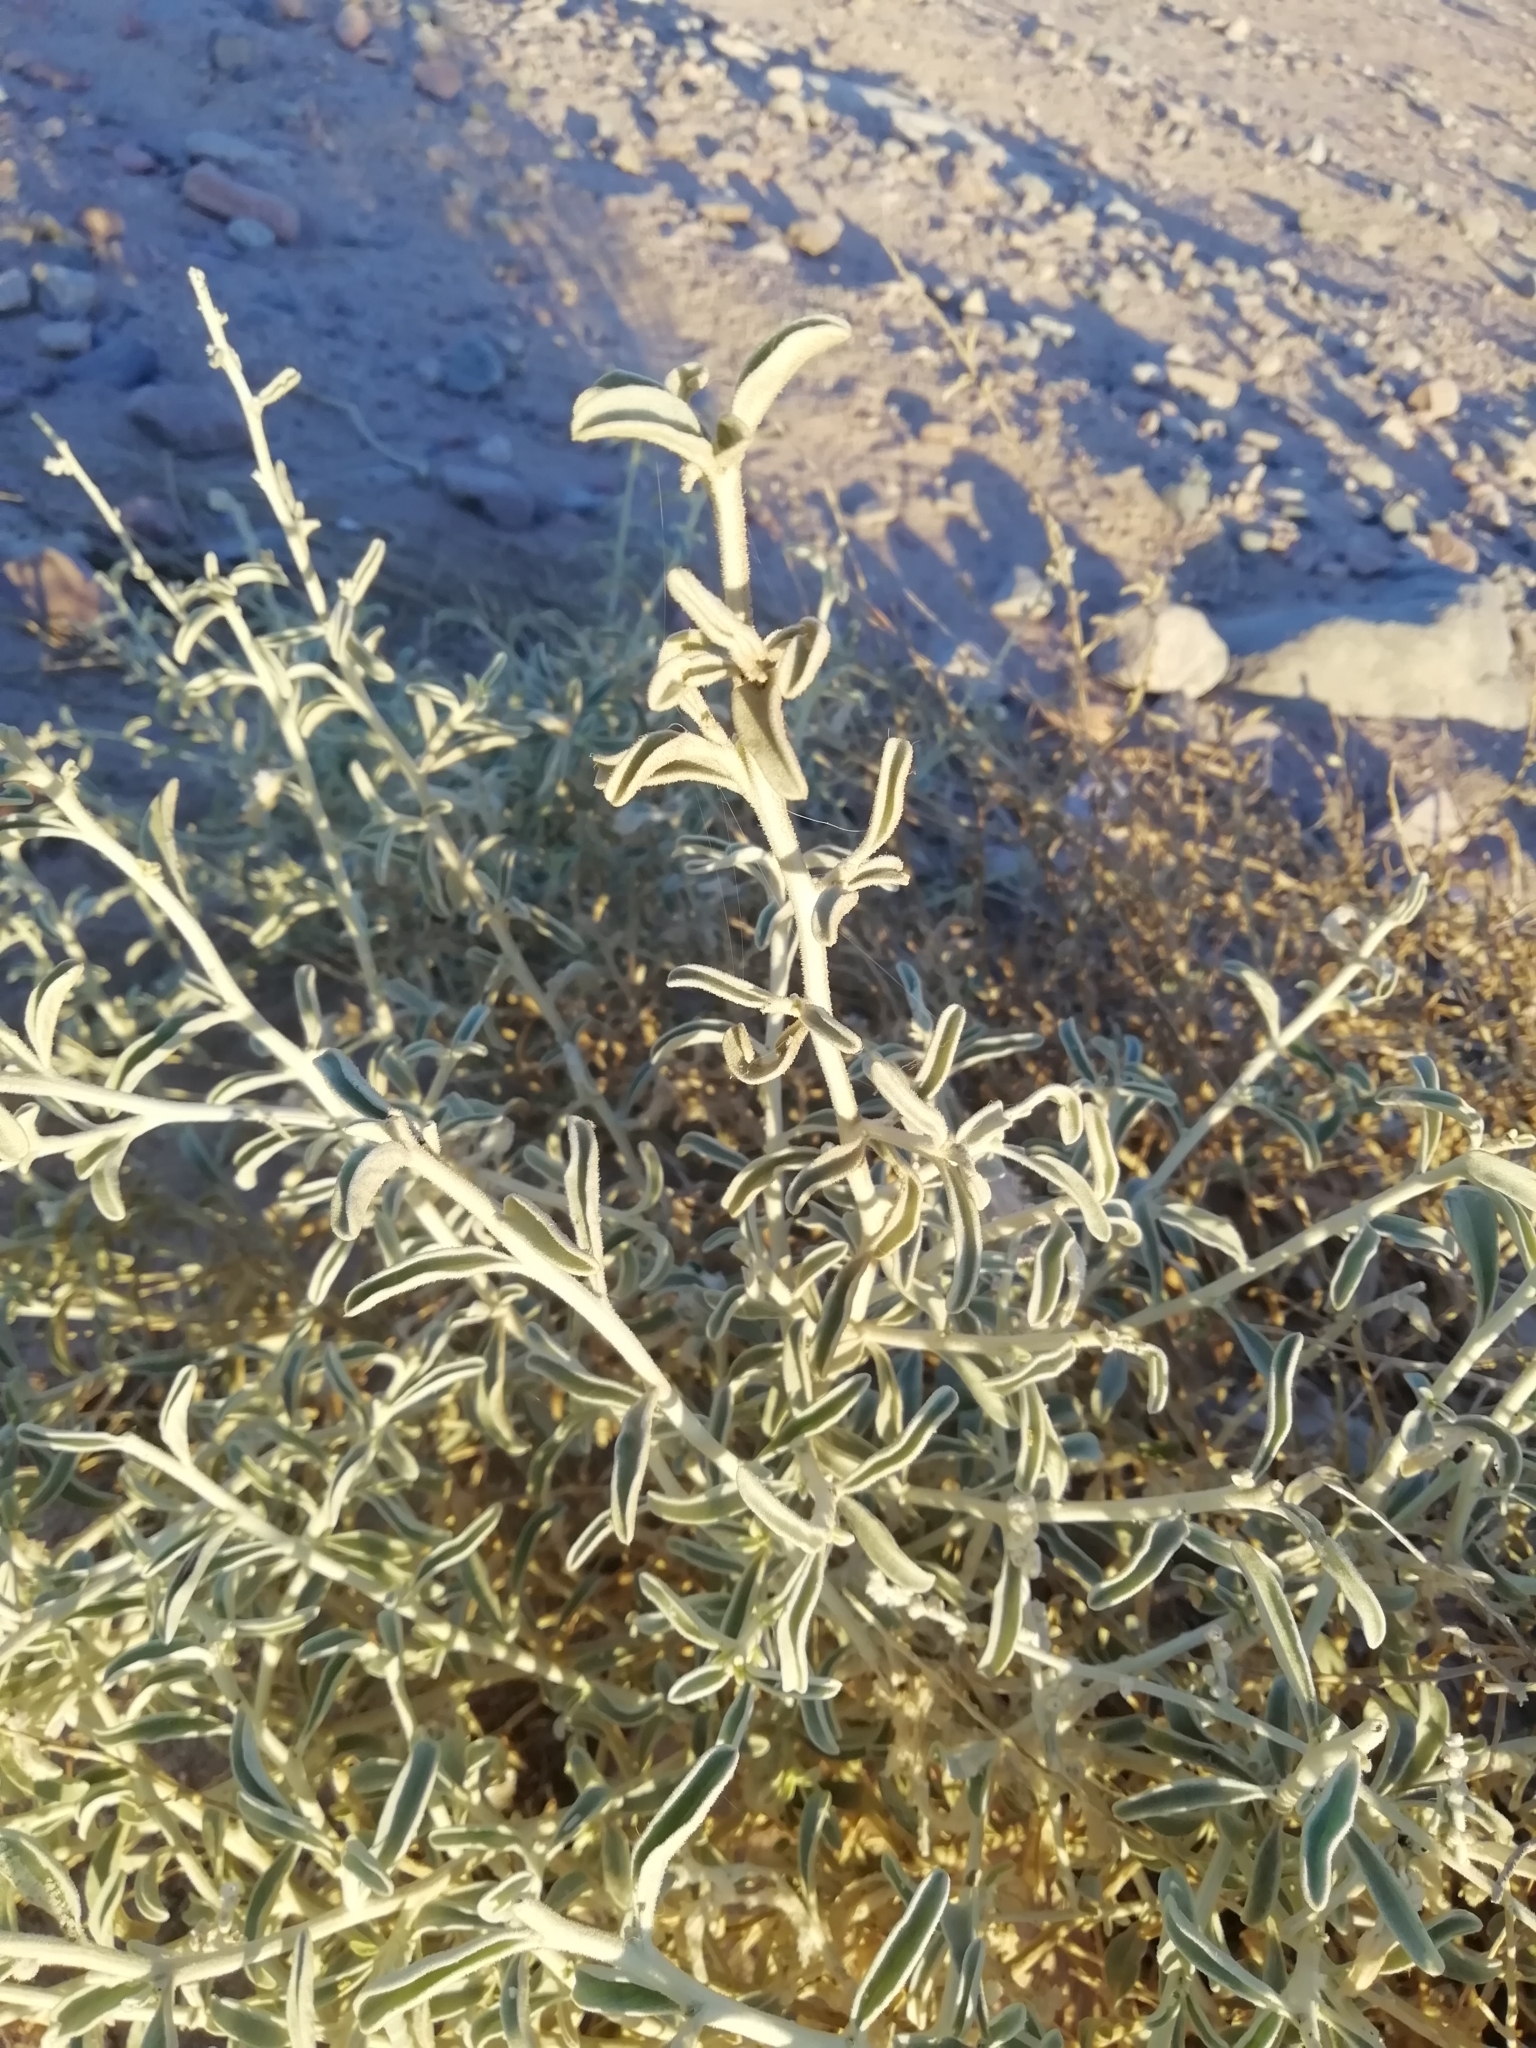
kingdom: Plantae
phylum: Tracheophyta
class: Magnoliopsida
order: Caryophyllales
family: Amaranthaceae
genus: Aerva
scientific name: Aerva javanica
